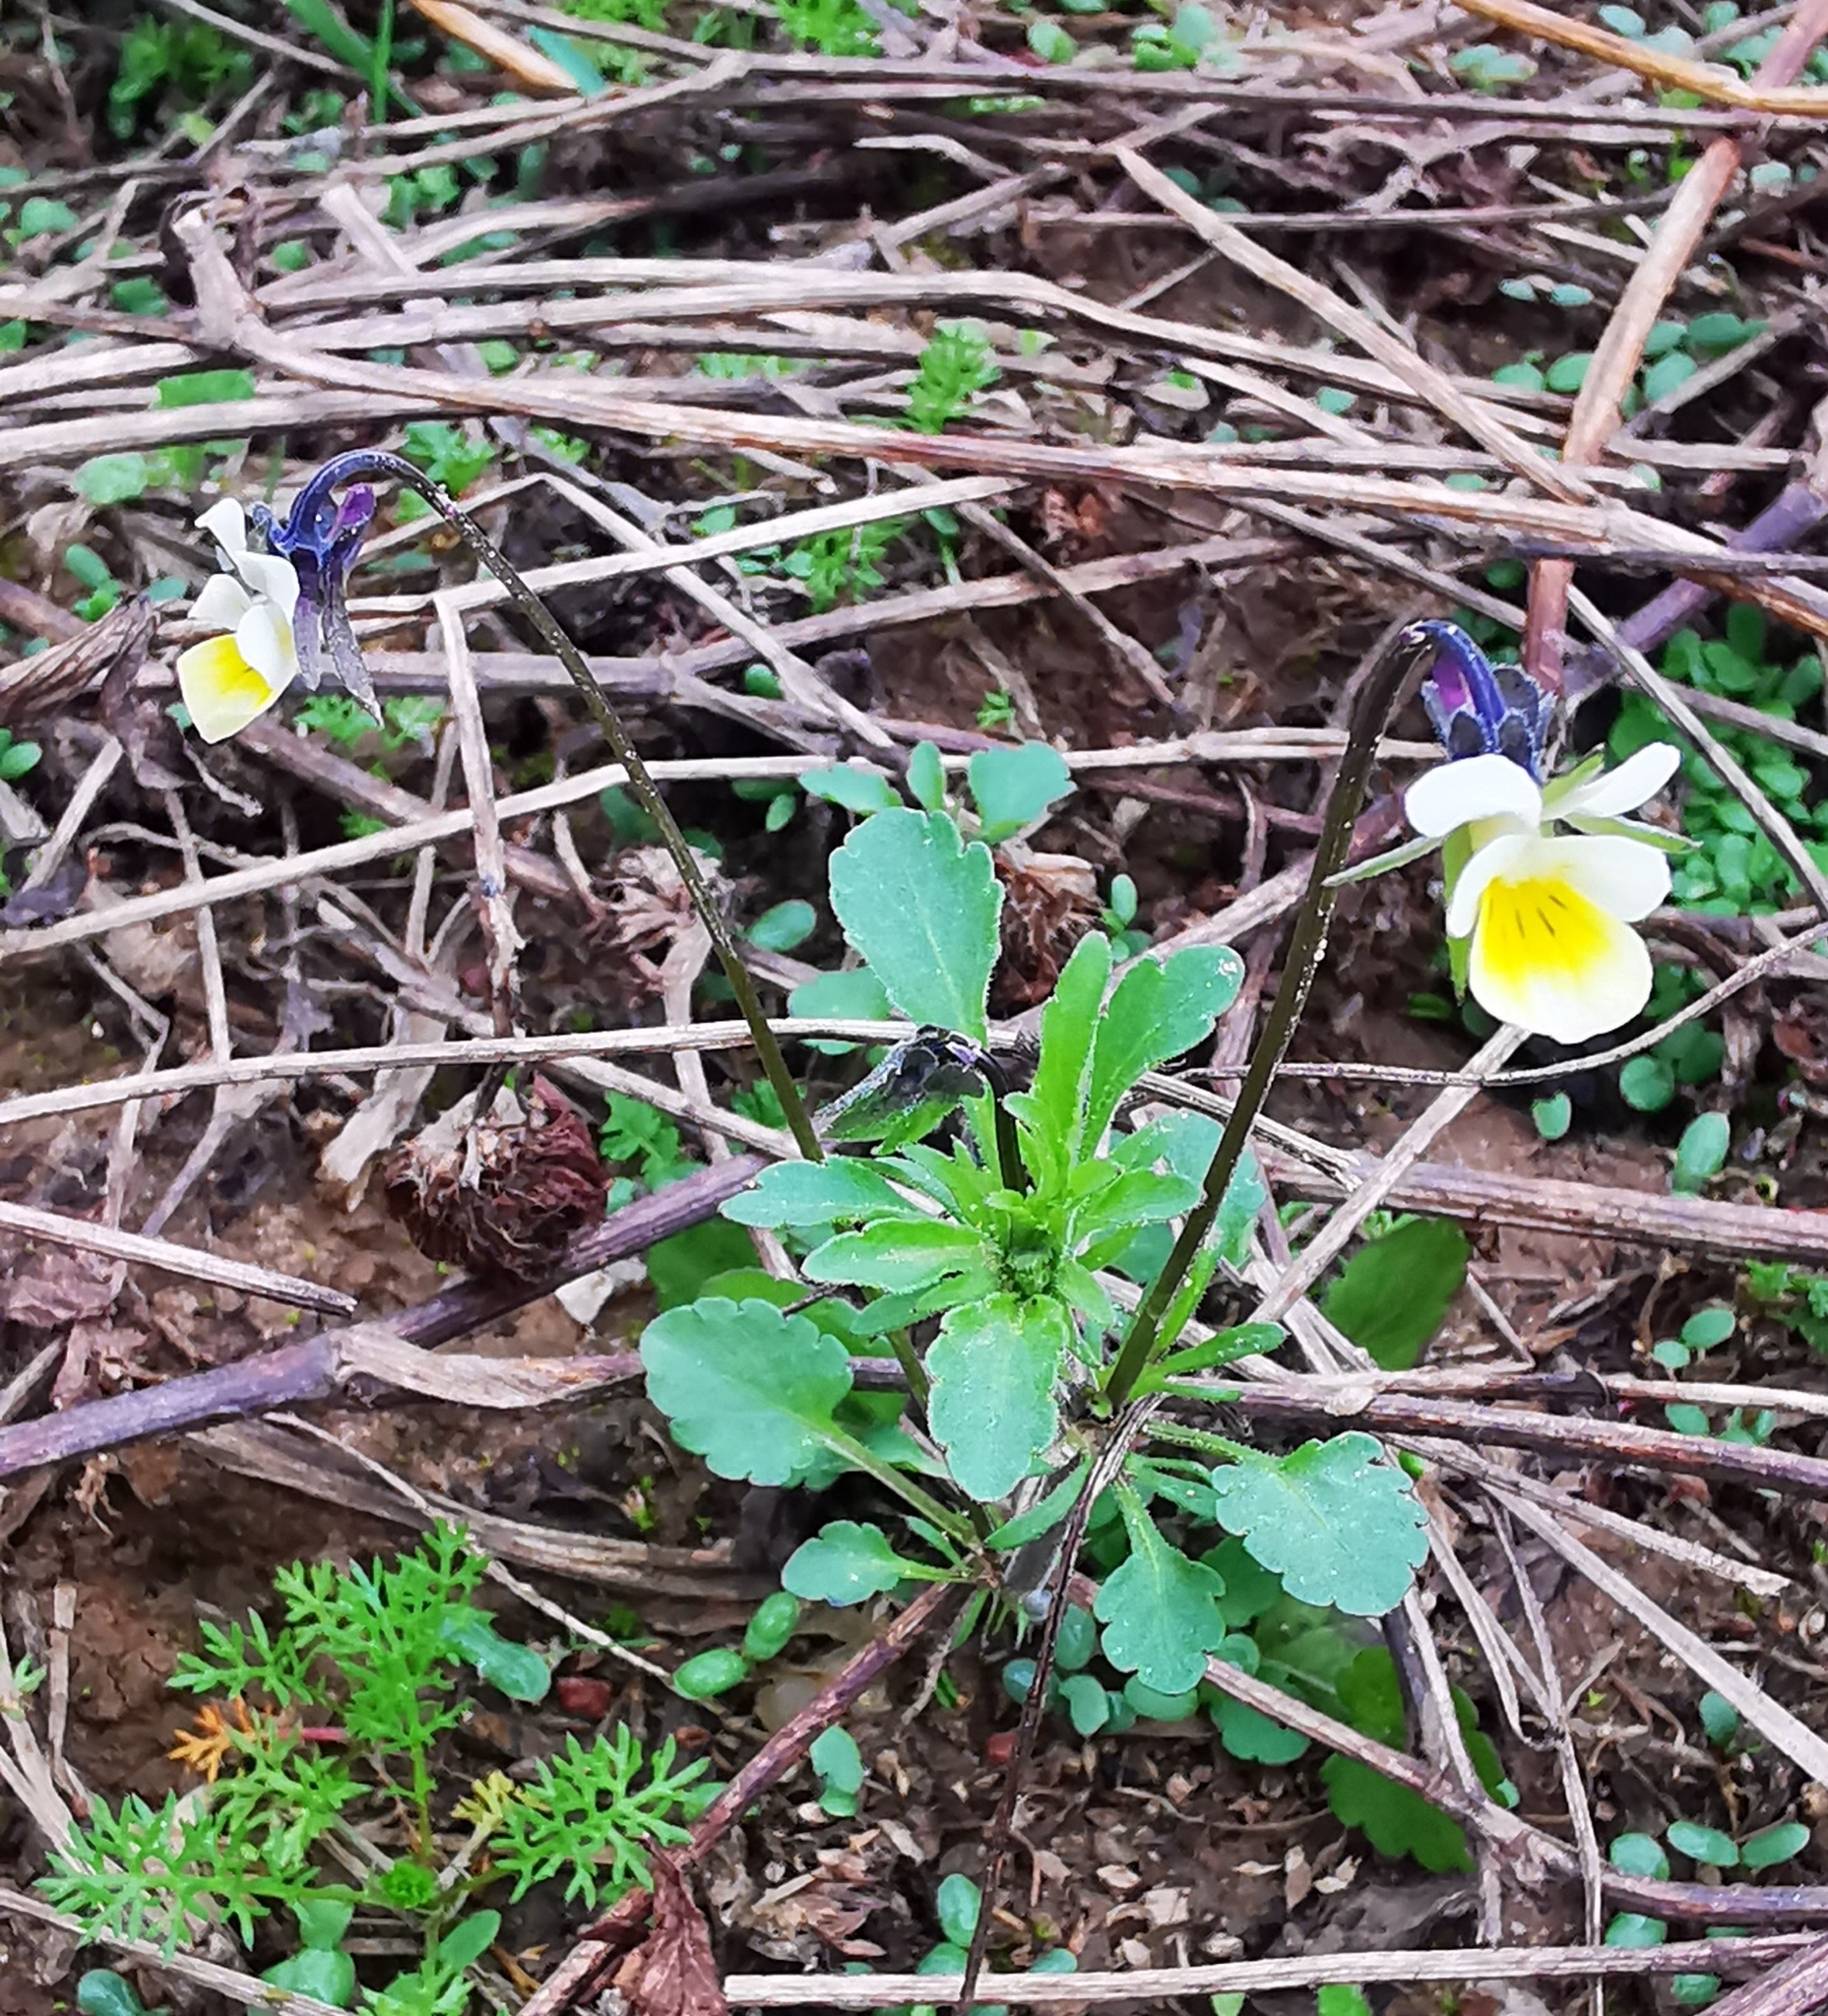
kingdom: Plantae
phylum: Tracheophyta
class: Magnoliopsida
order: Malpighiales
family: Violaceae
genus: Viola
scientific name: Viola arvensis
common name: Field pansy
